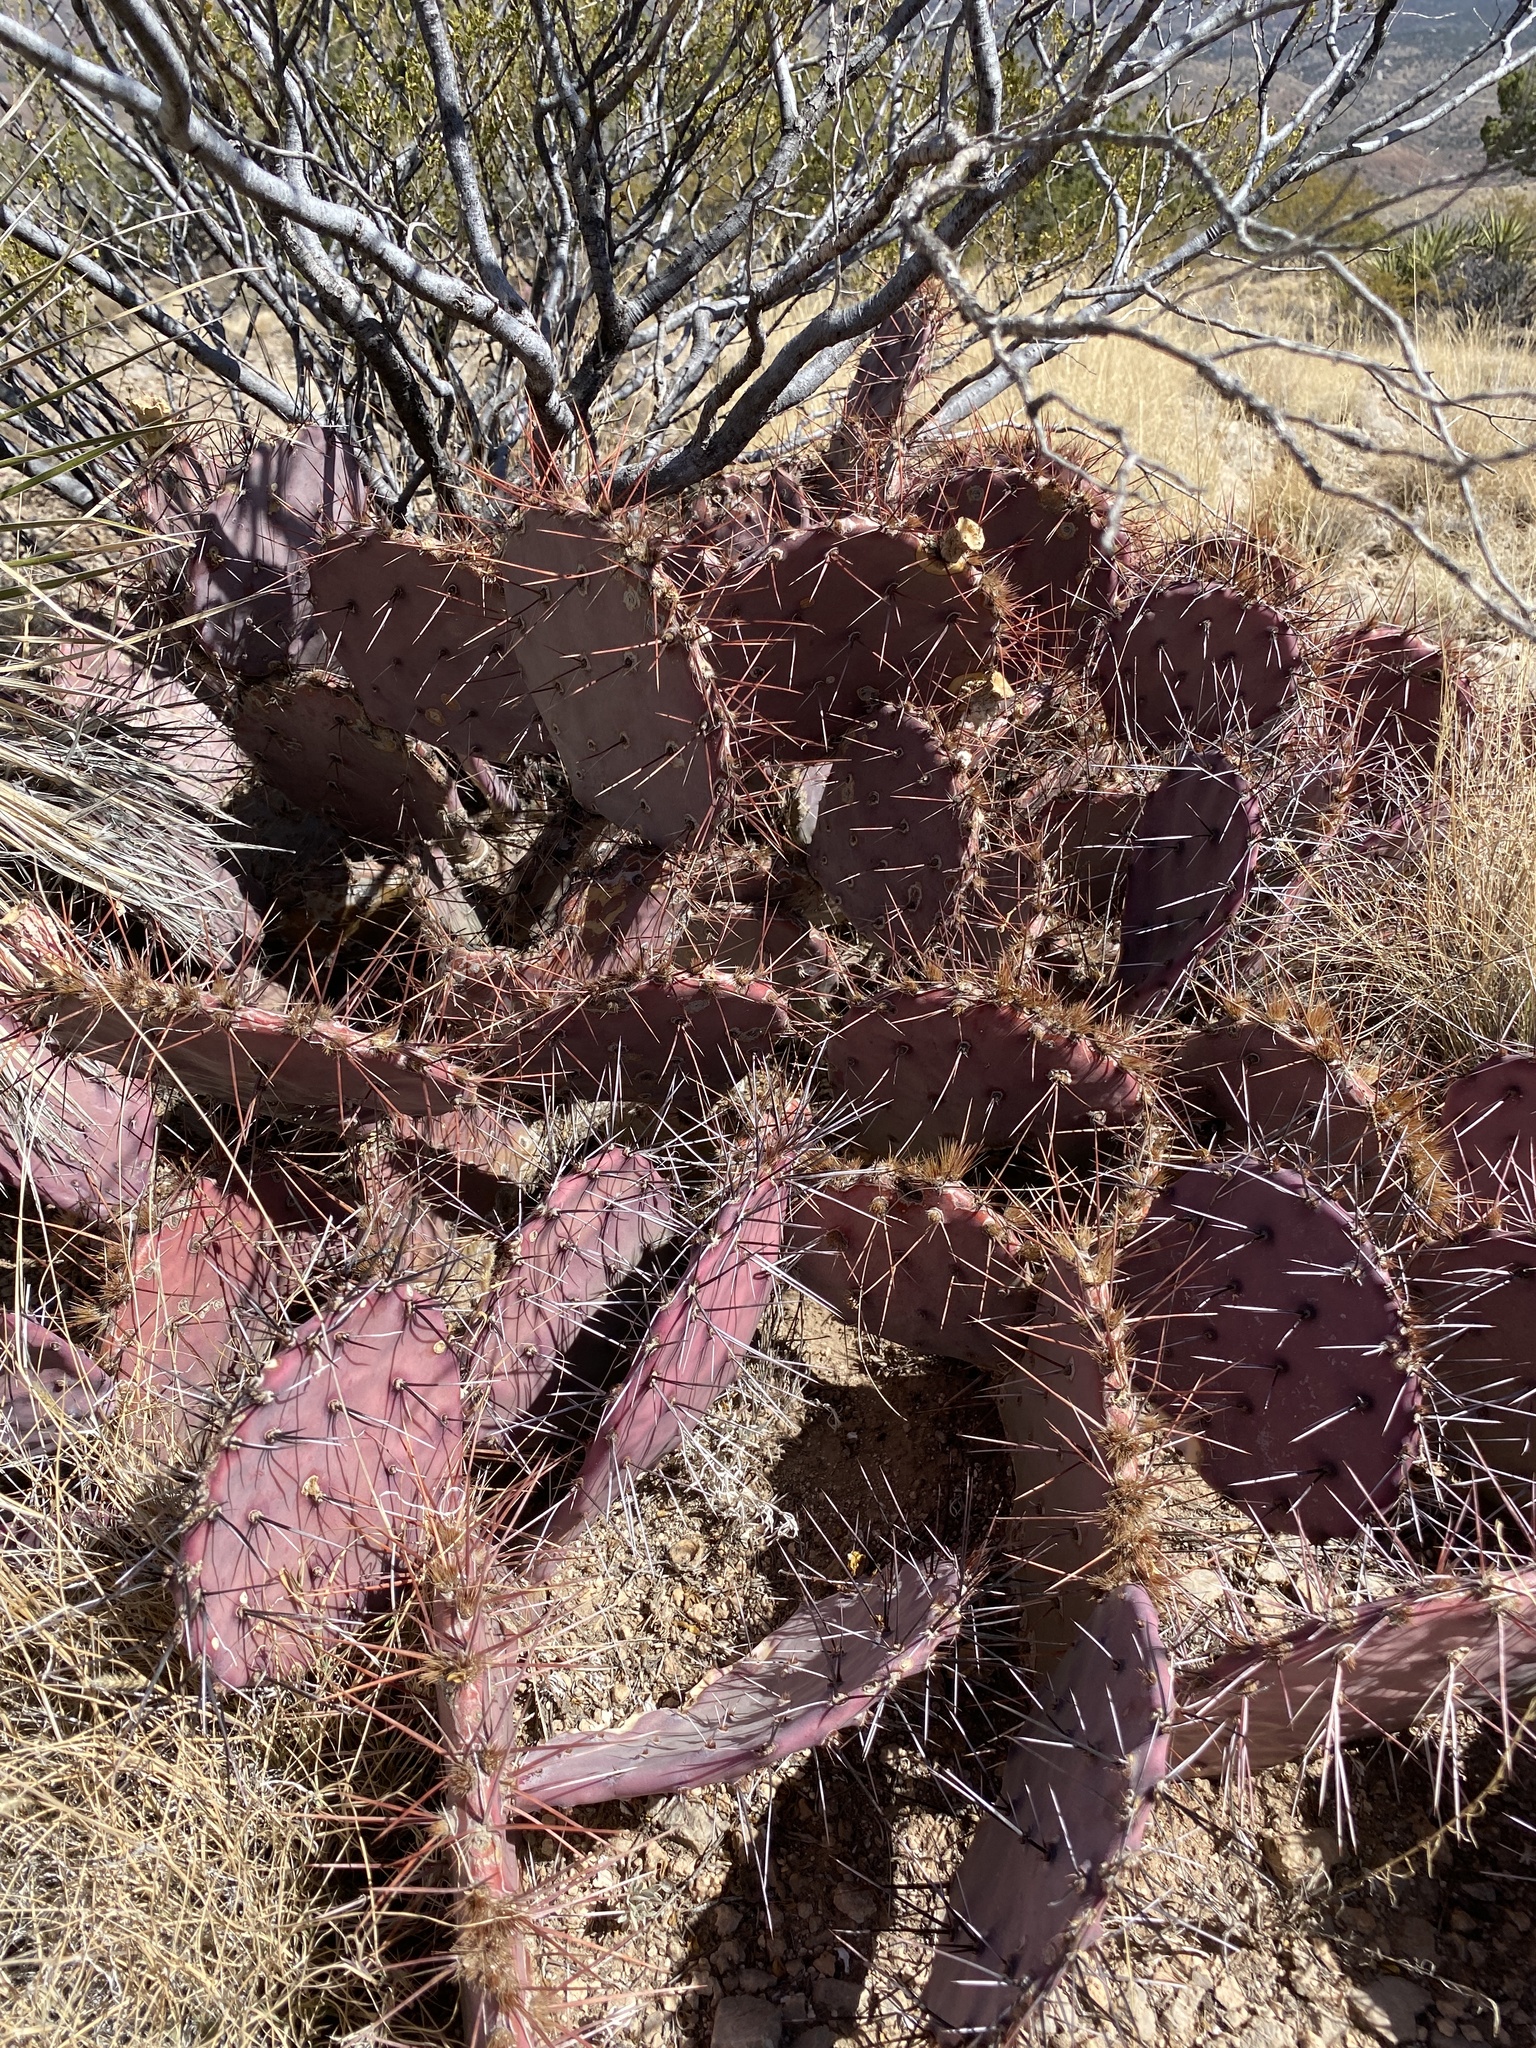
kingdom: Plantae
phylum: Tracheophyta
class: Magnoliopsida
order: Caryophyllales
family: Cactaceae
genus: Opuntia
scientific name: Opuntia macrocentra
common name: Purple prickly-pear
